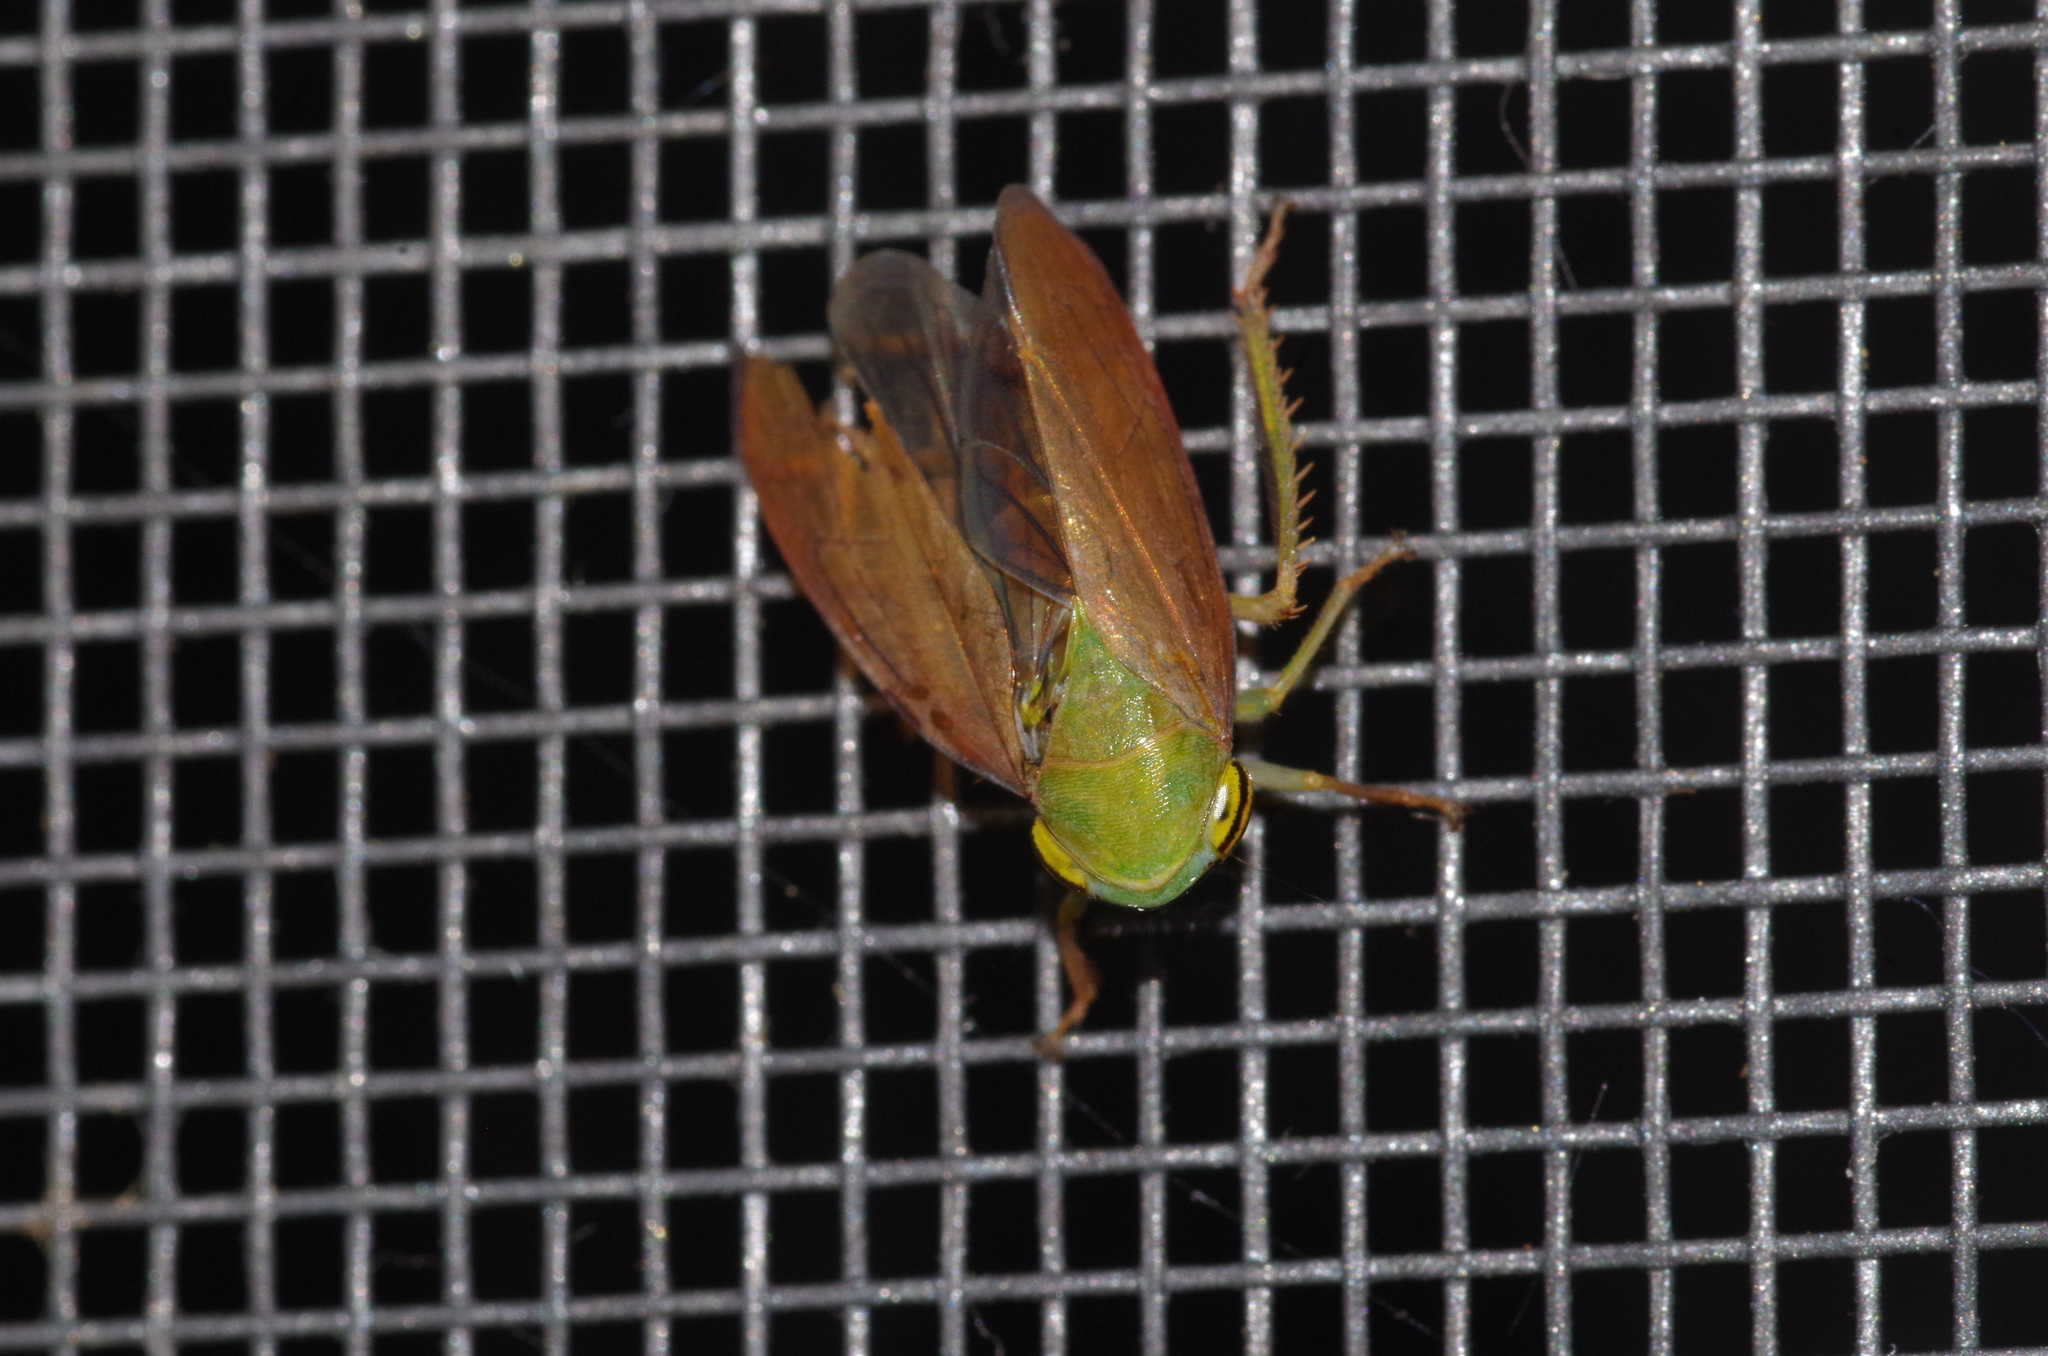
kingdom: Animalia
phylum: Arthropoda
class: Insecta
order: Hemiptera
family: Cicadellidae
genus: Tartessus
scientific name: Tartessus ferrugineus
